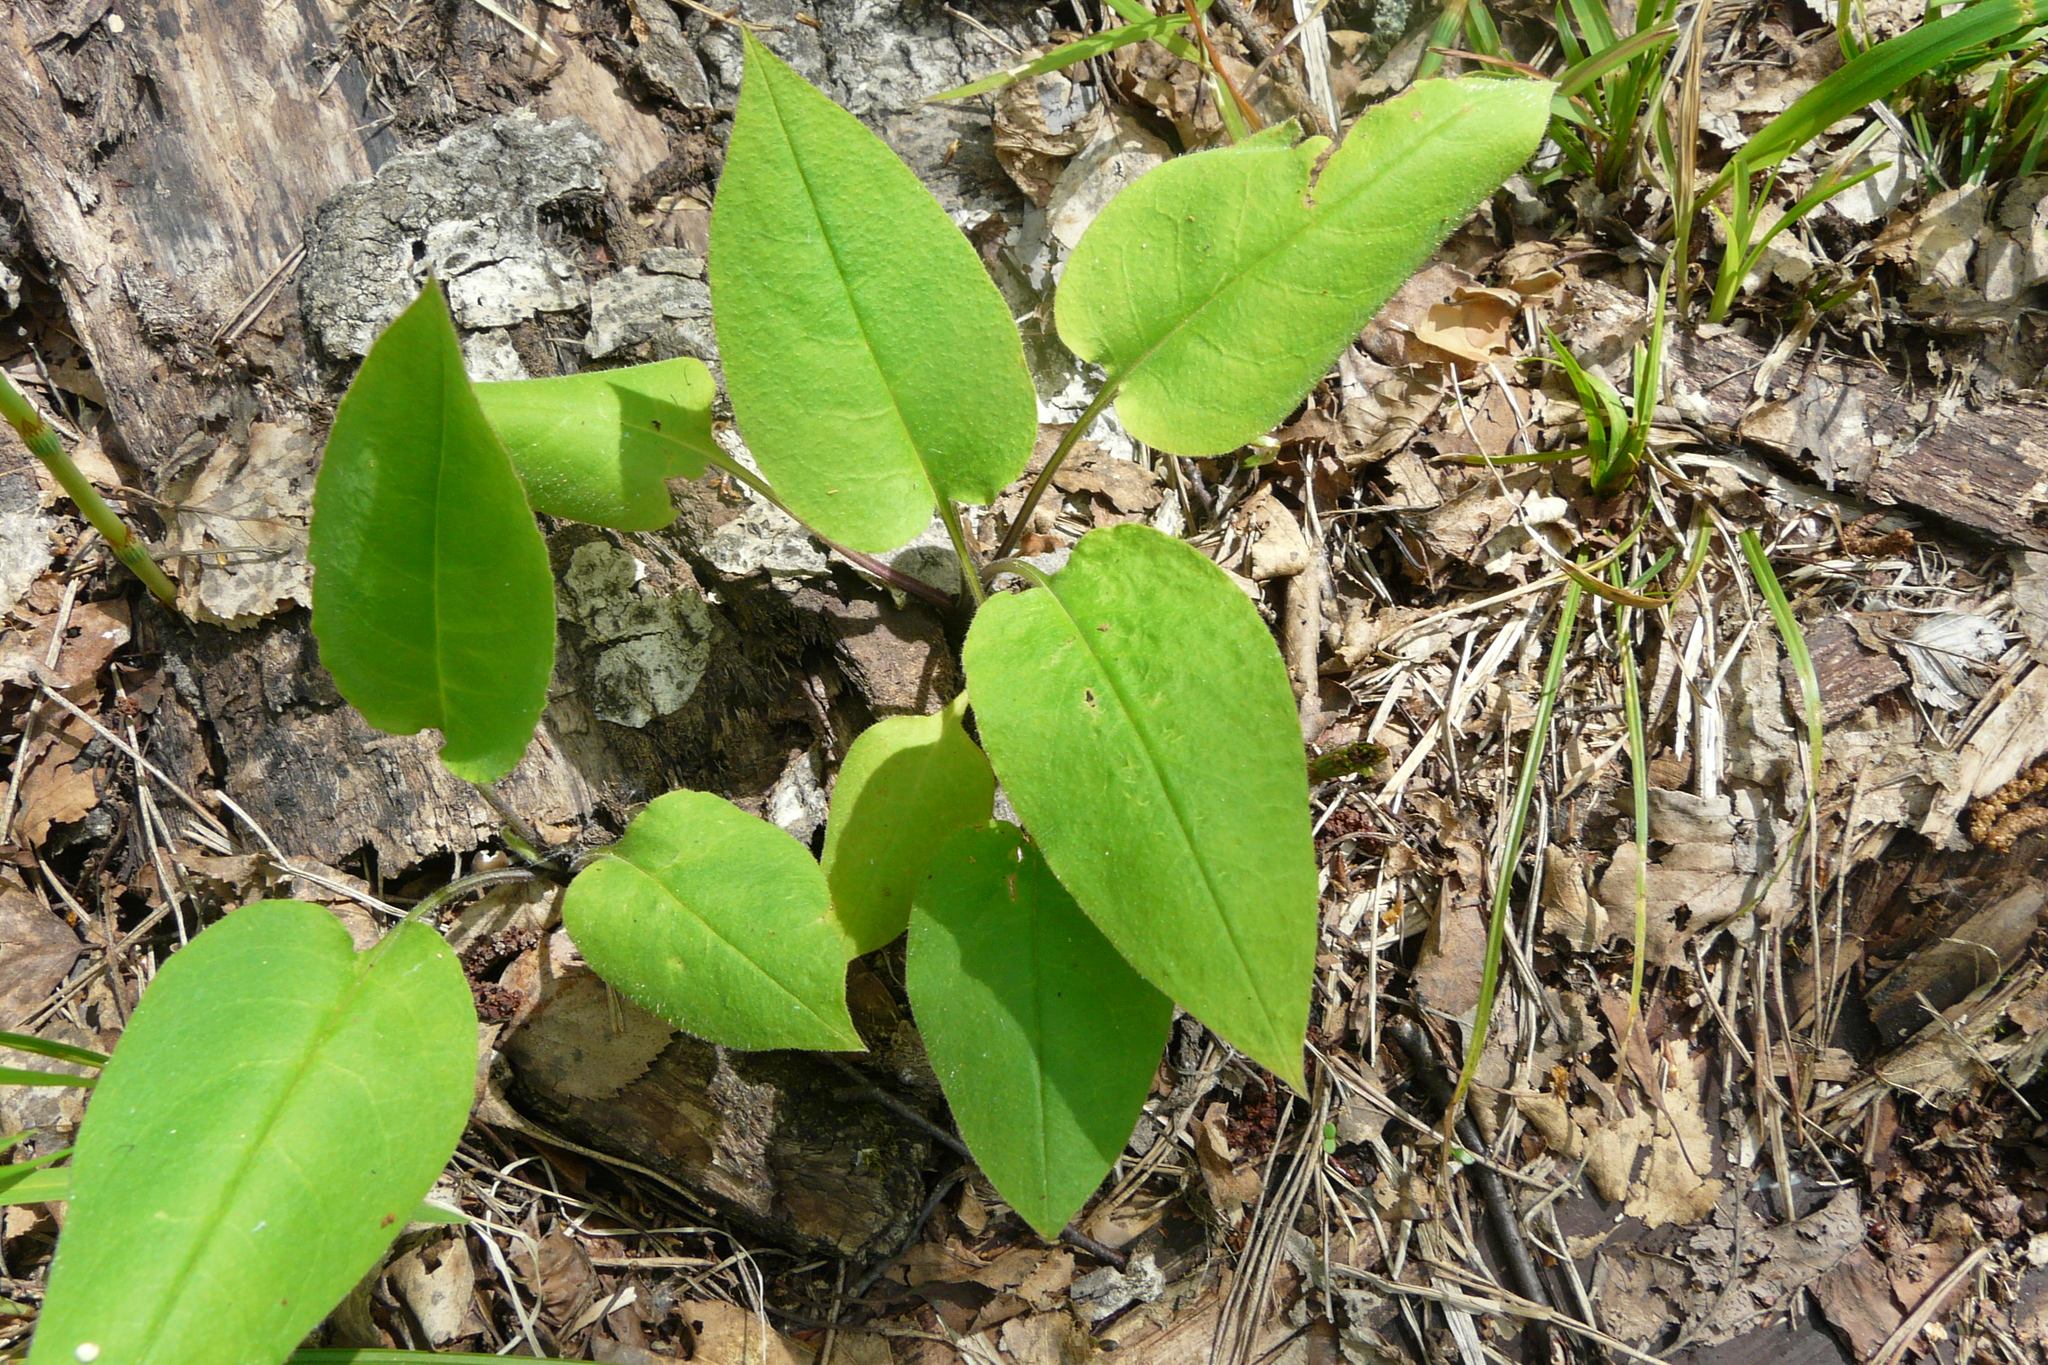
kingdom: Plantae
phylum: Tracheophyta
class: Magnoliopsida
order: Boraginales
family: Boraginaceae
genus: Pulmonaria
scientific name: Pulmonaria obscura
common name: Suffolk lungwort
